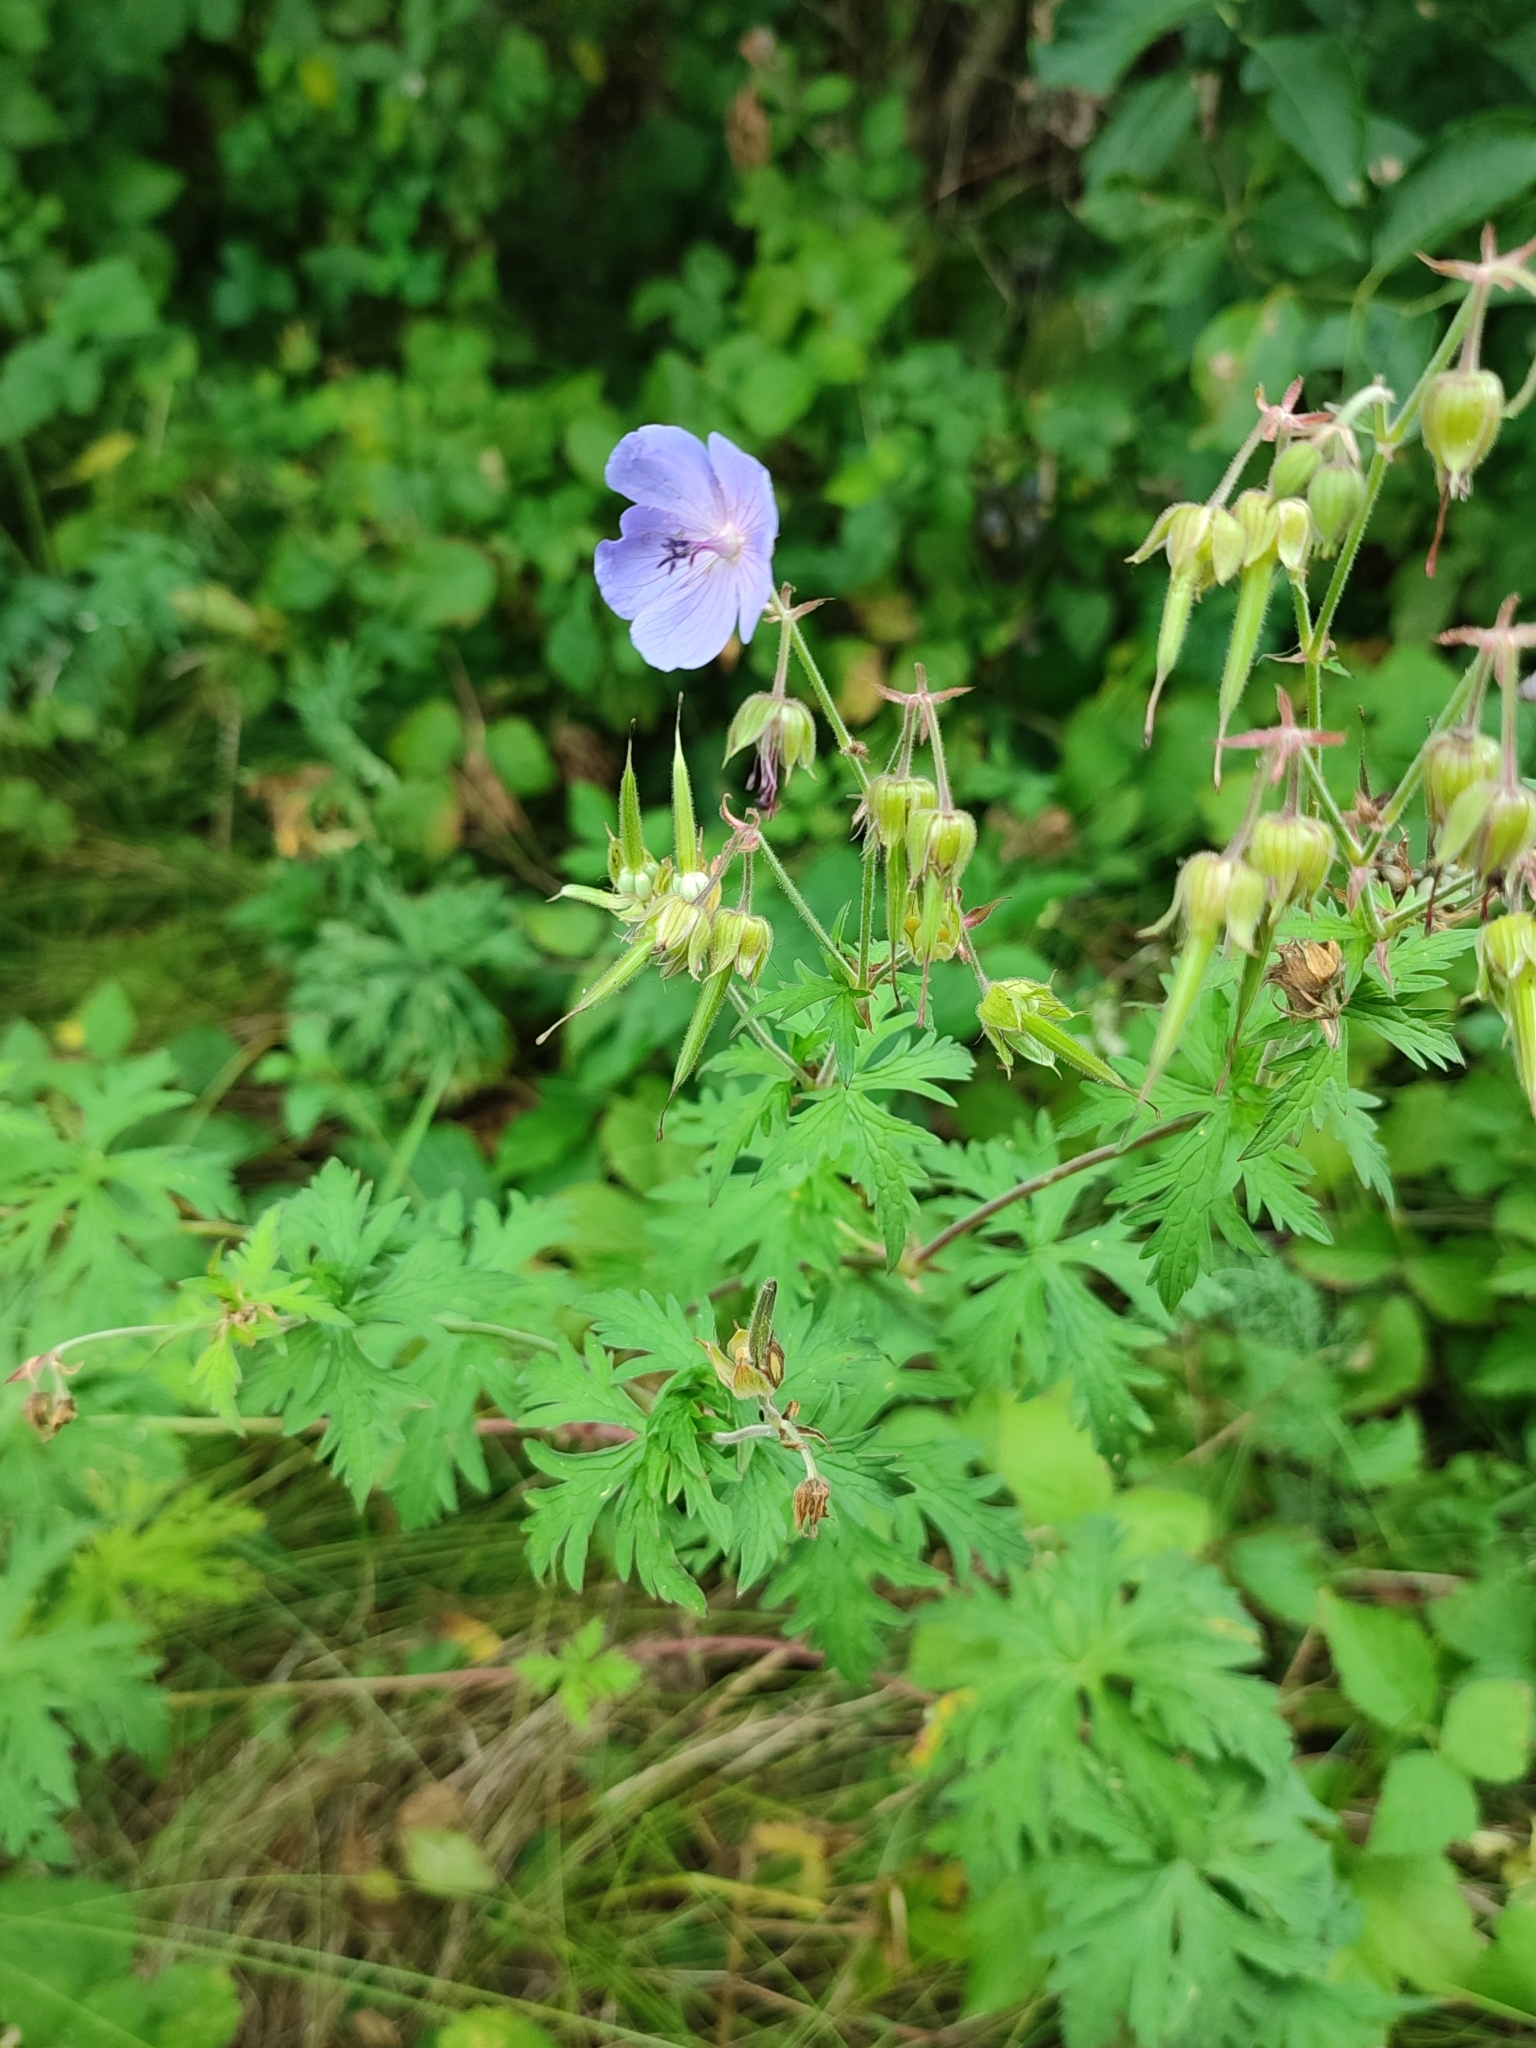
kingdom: Plantae
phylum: Tracheophyta
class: Magnoliopsida
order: Geraniales
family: Geraniaceae
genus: Geranium
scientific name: Geranium pratense
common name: Meadow crane's-bill
